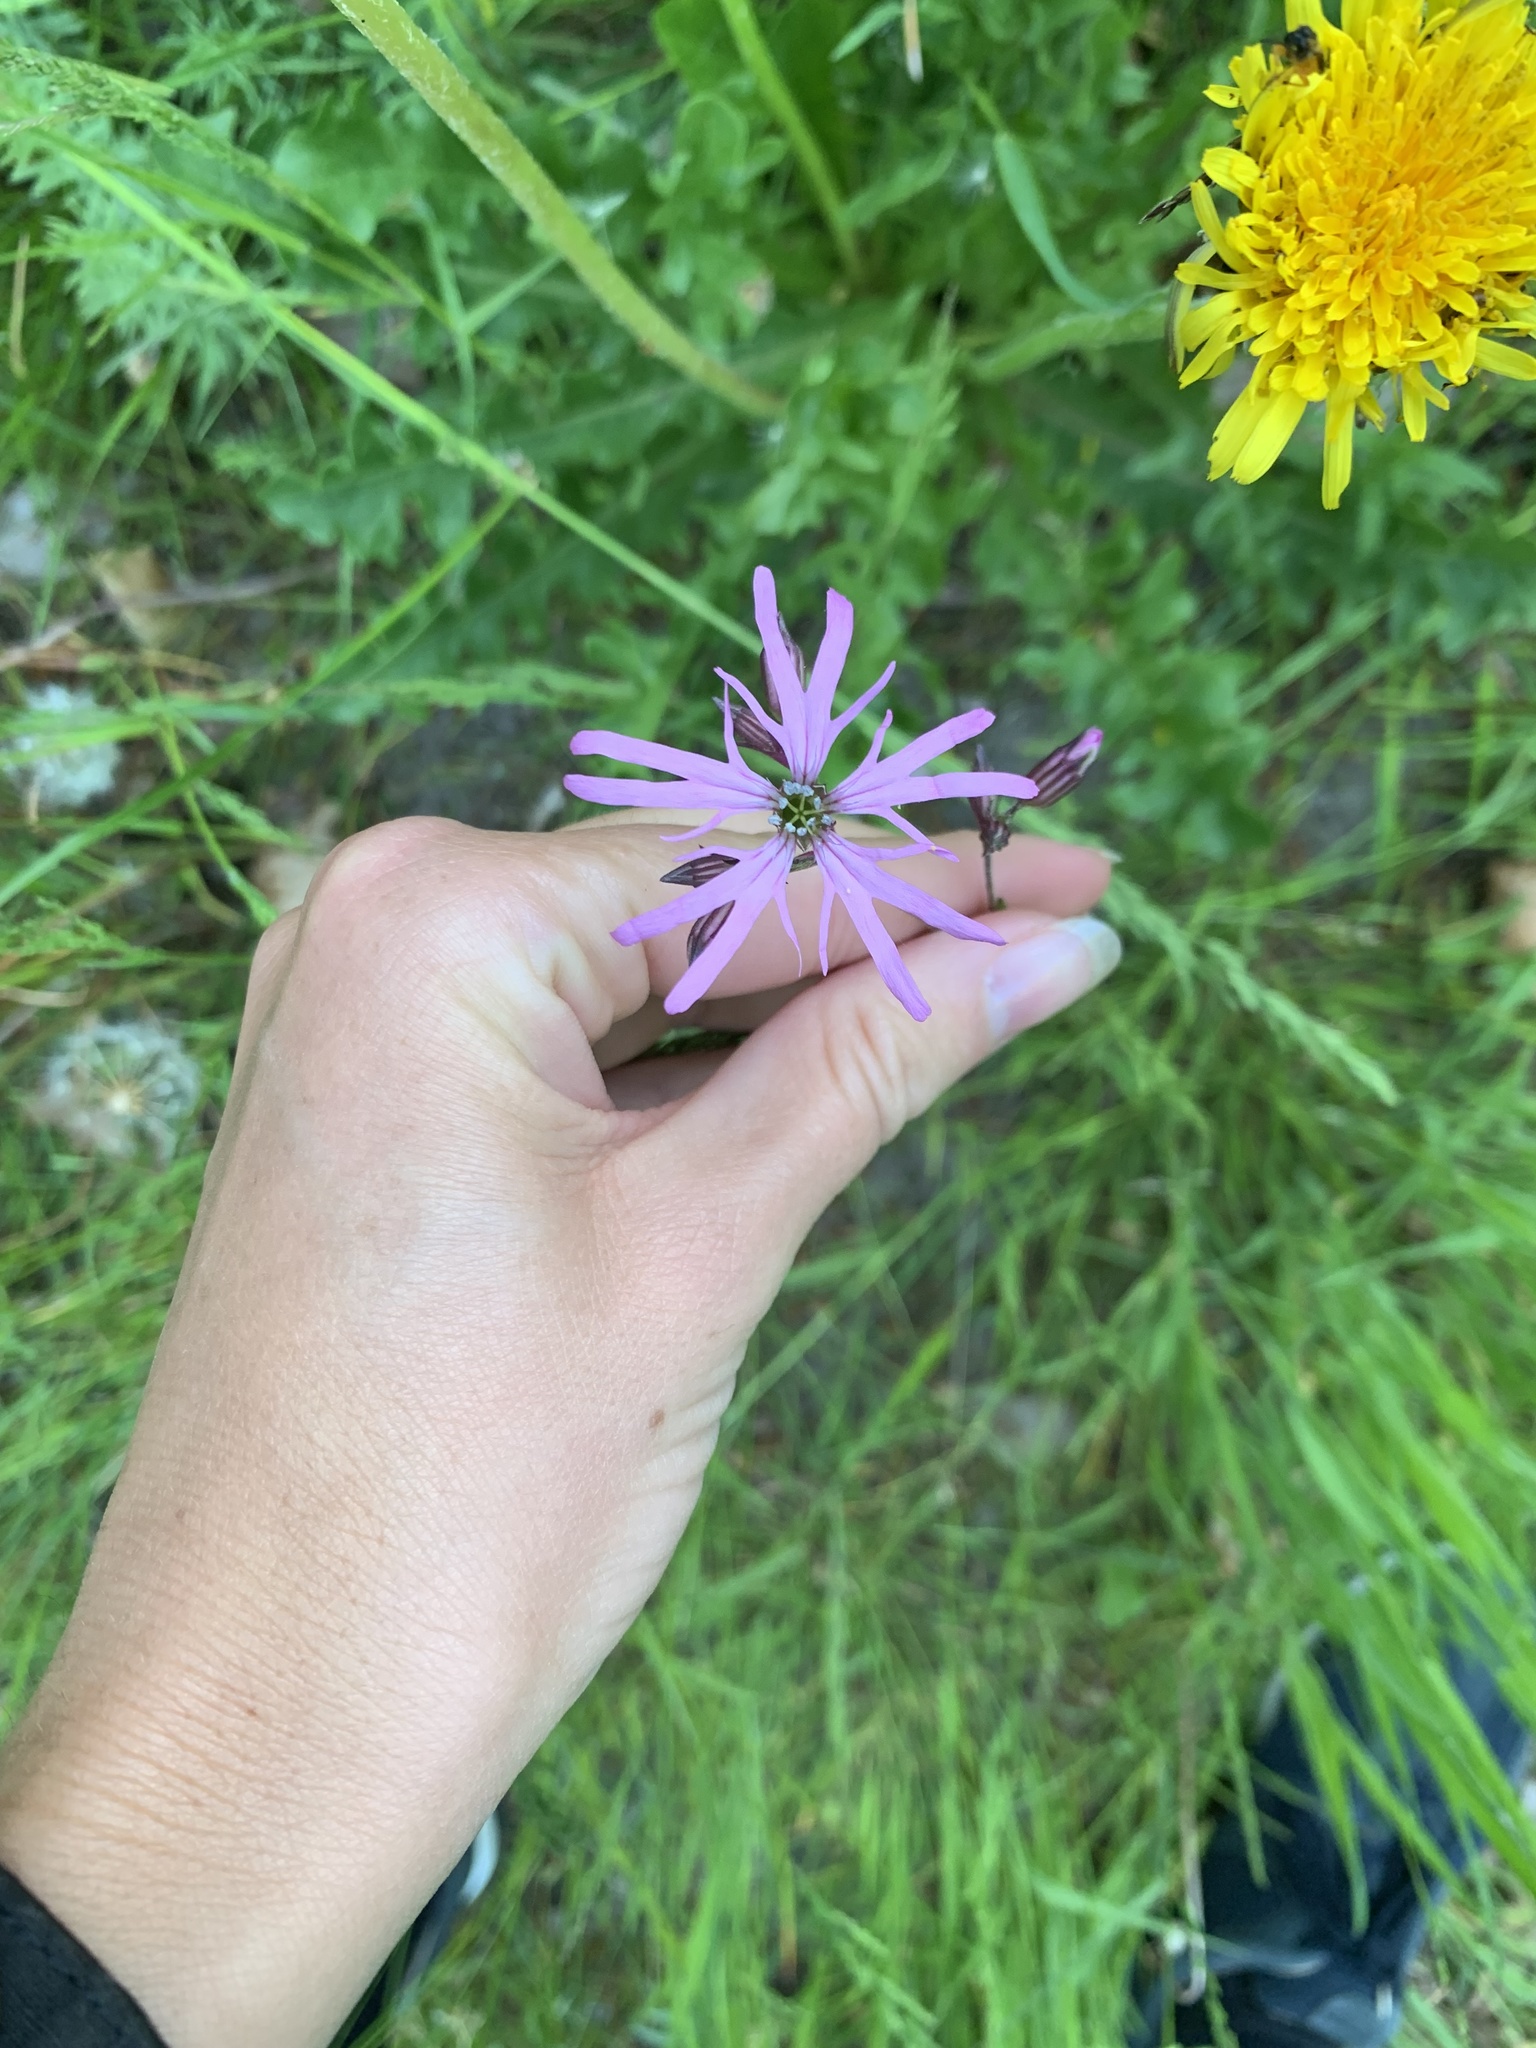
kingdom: Plantae
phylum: Tracheophyta
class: Magnoliopsida
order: Caryophyllales
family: Caryophyllaceae
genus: Silene
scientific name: Silene flos-cuculi
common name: Ragged-robin
